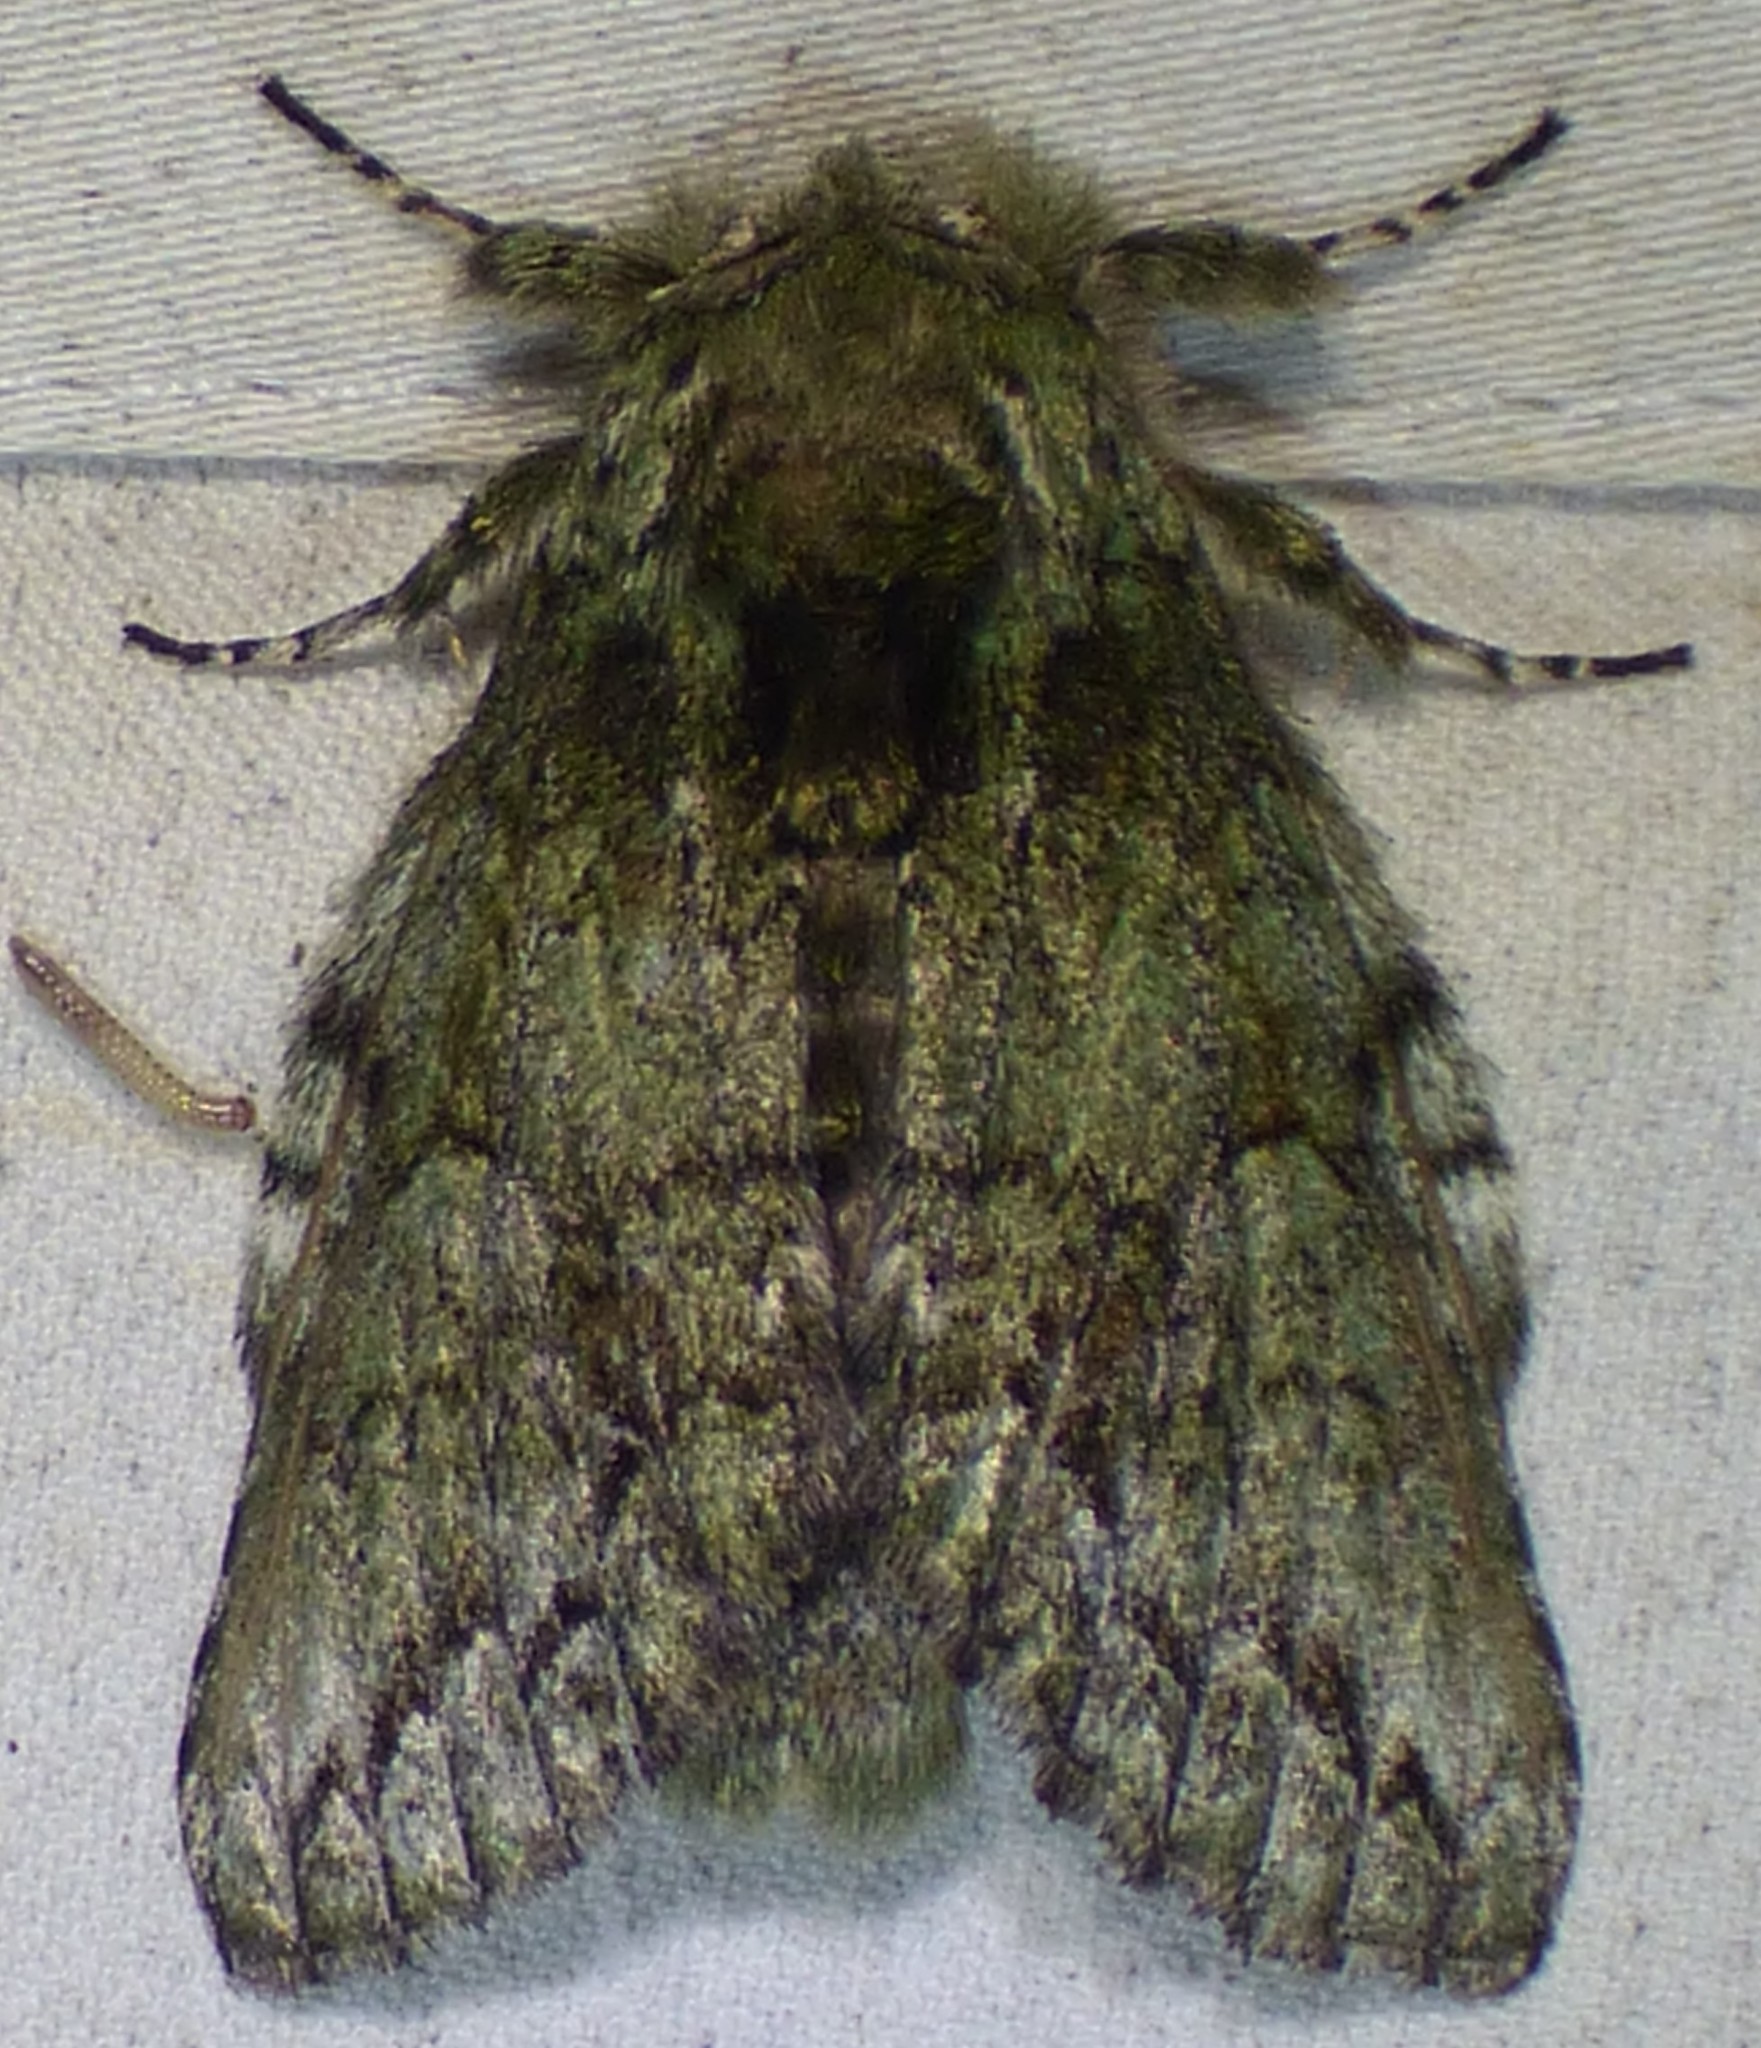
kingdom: Animalia
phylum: Arthropoda
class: Insecta
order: Lepidoptera
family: Notodontidae
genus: Heterocampa
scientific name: Heterocampa
